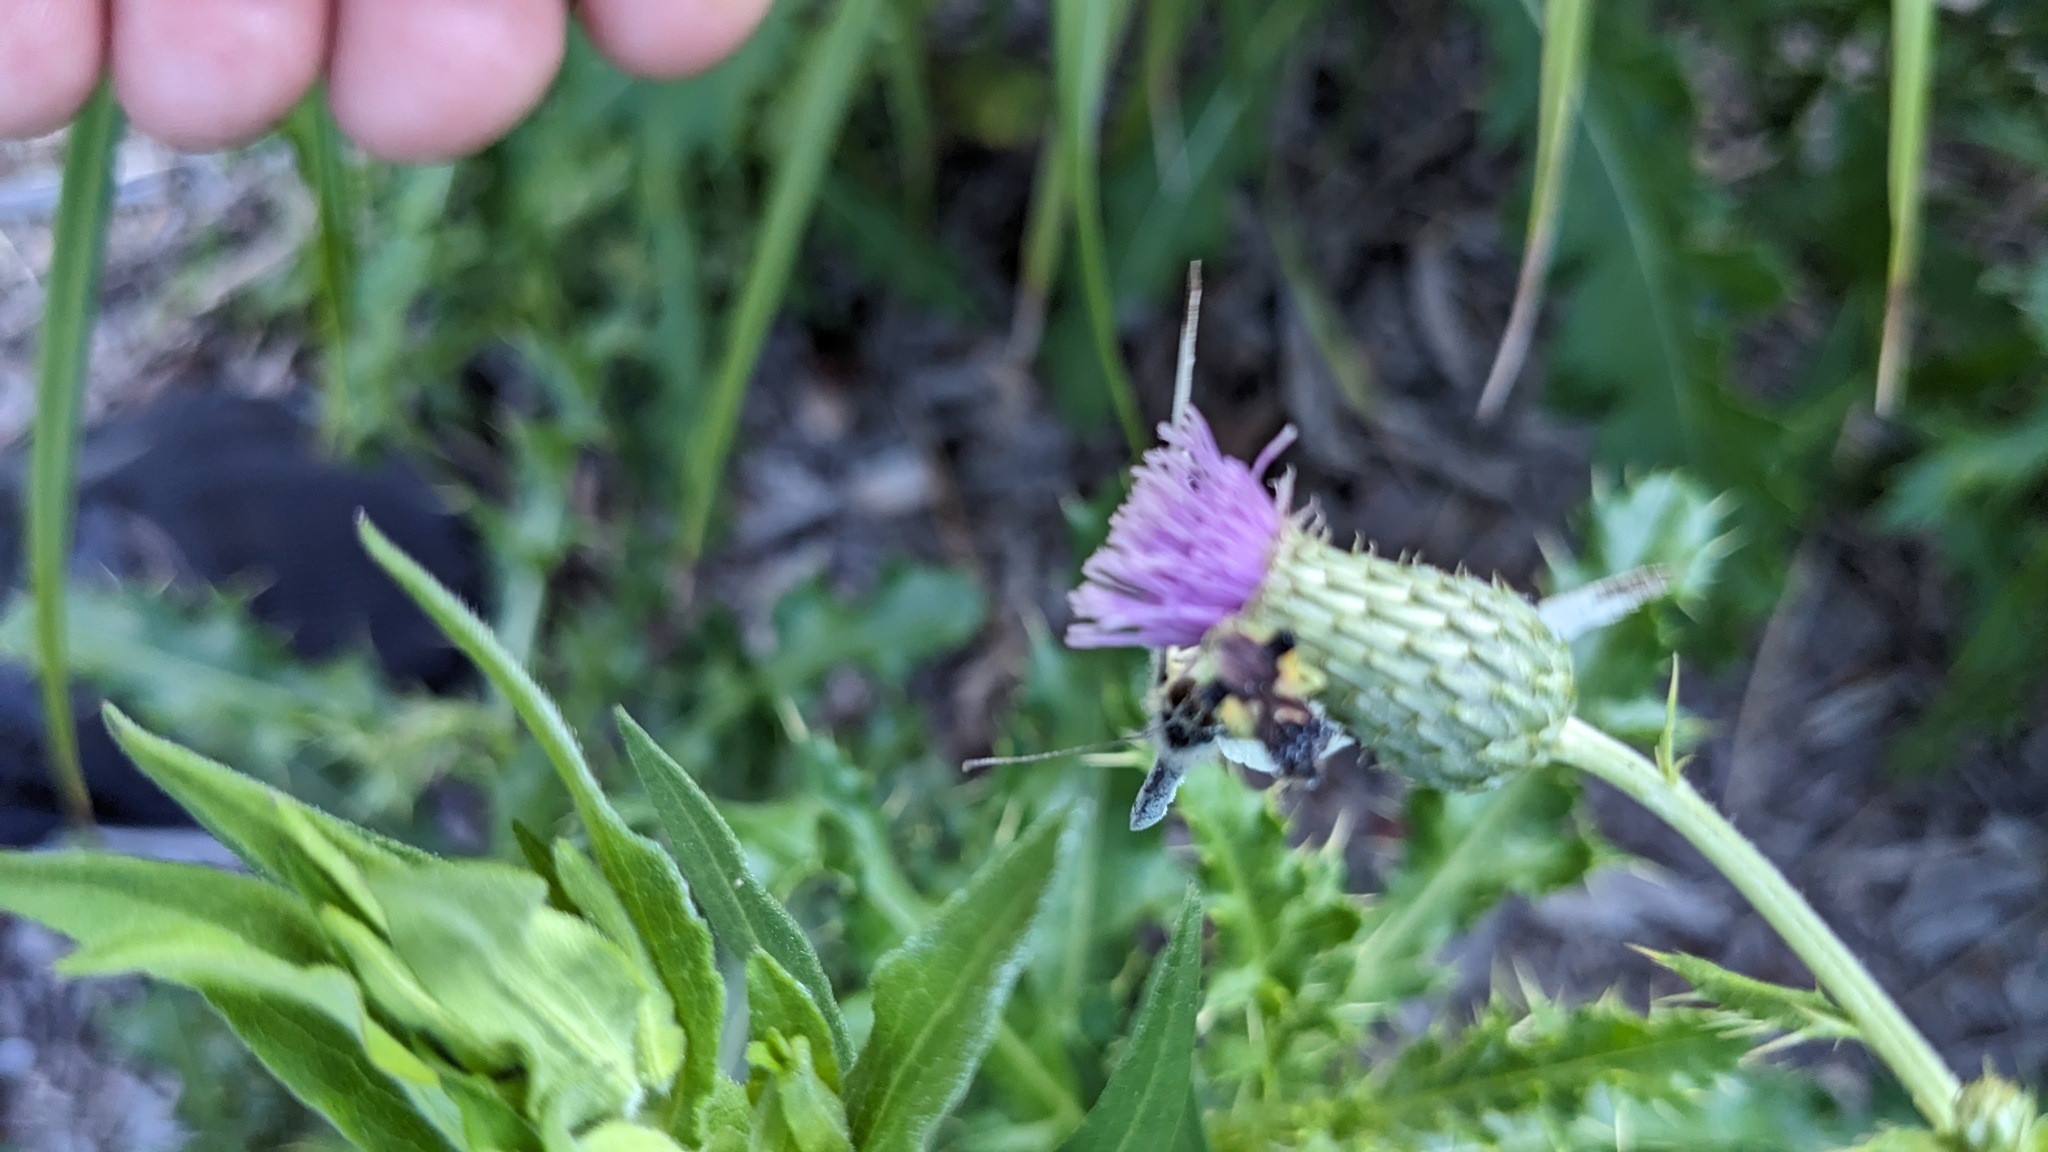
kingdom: Animalia
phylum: Arthropoda
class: Insecta
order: Lepidoptera
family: Pieridae
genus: Pieris
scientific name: Pieris rapae
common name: Small white
